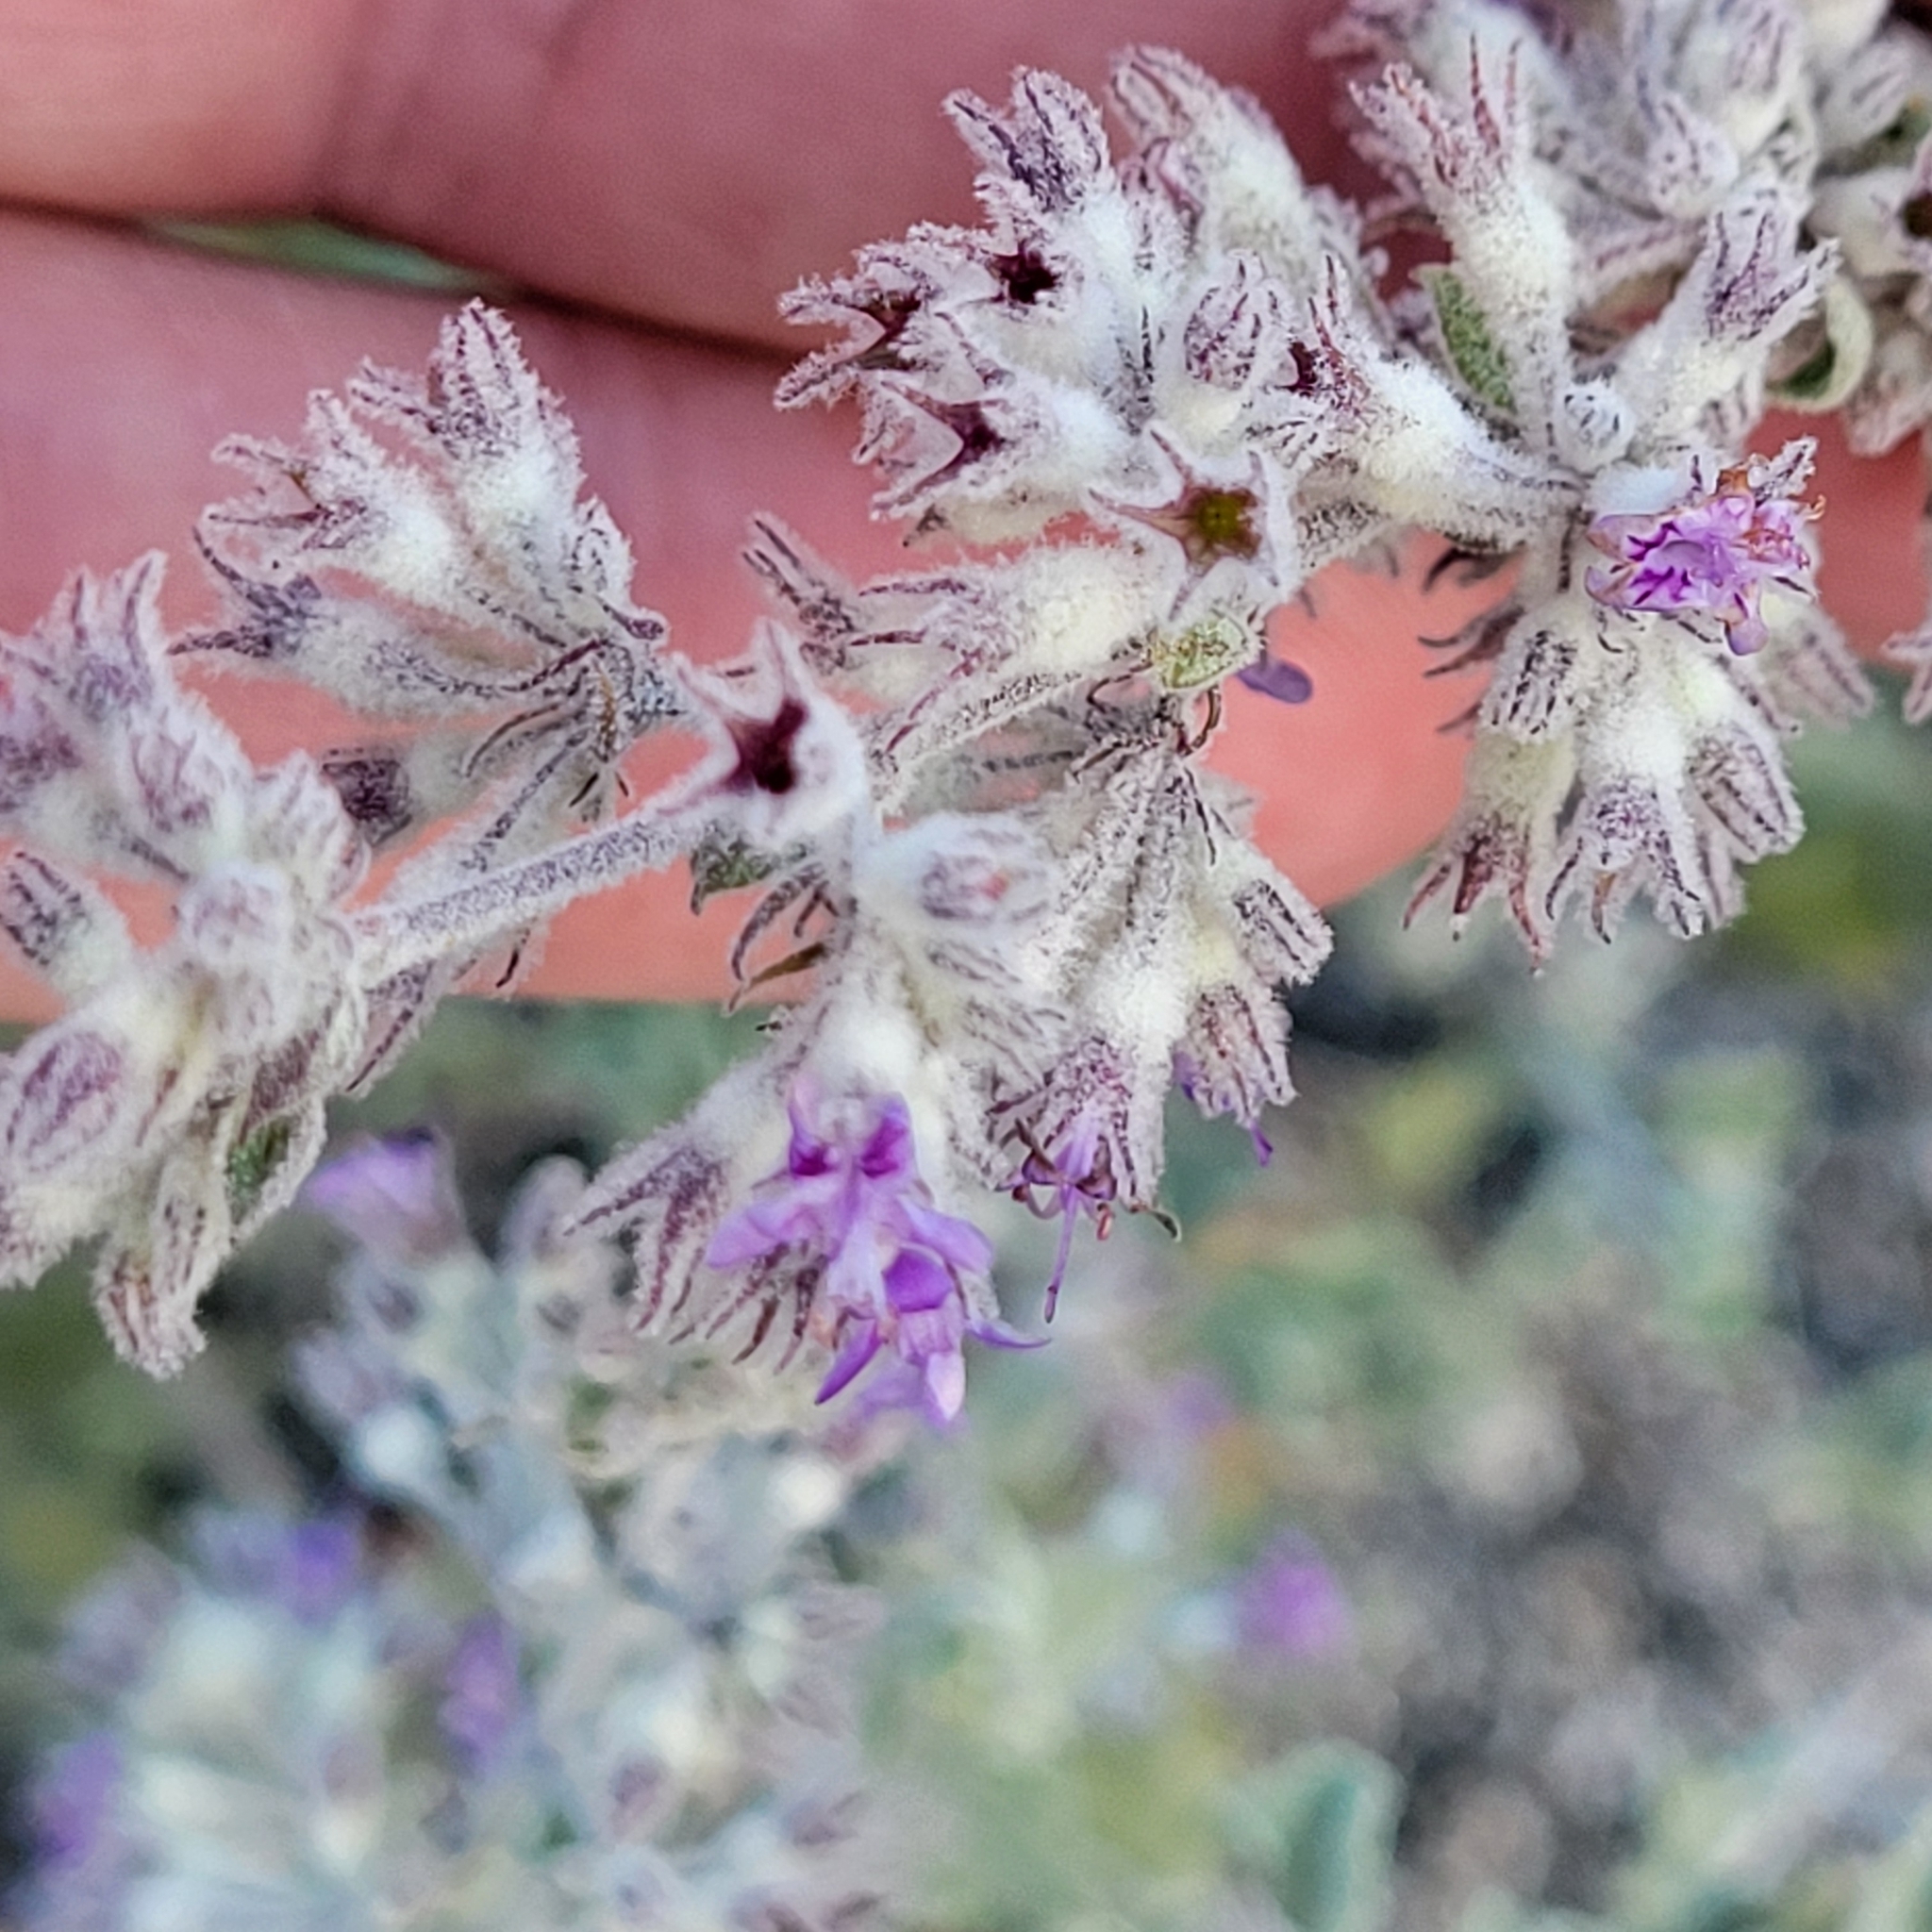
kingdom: Plantae
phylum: Tracheophyta
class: Magnoliopsida
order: Lamiales
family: Lamiaceae
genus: Condea
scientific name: Condea emoryi
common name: Chia
